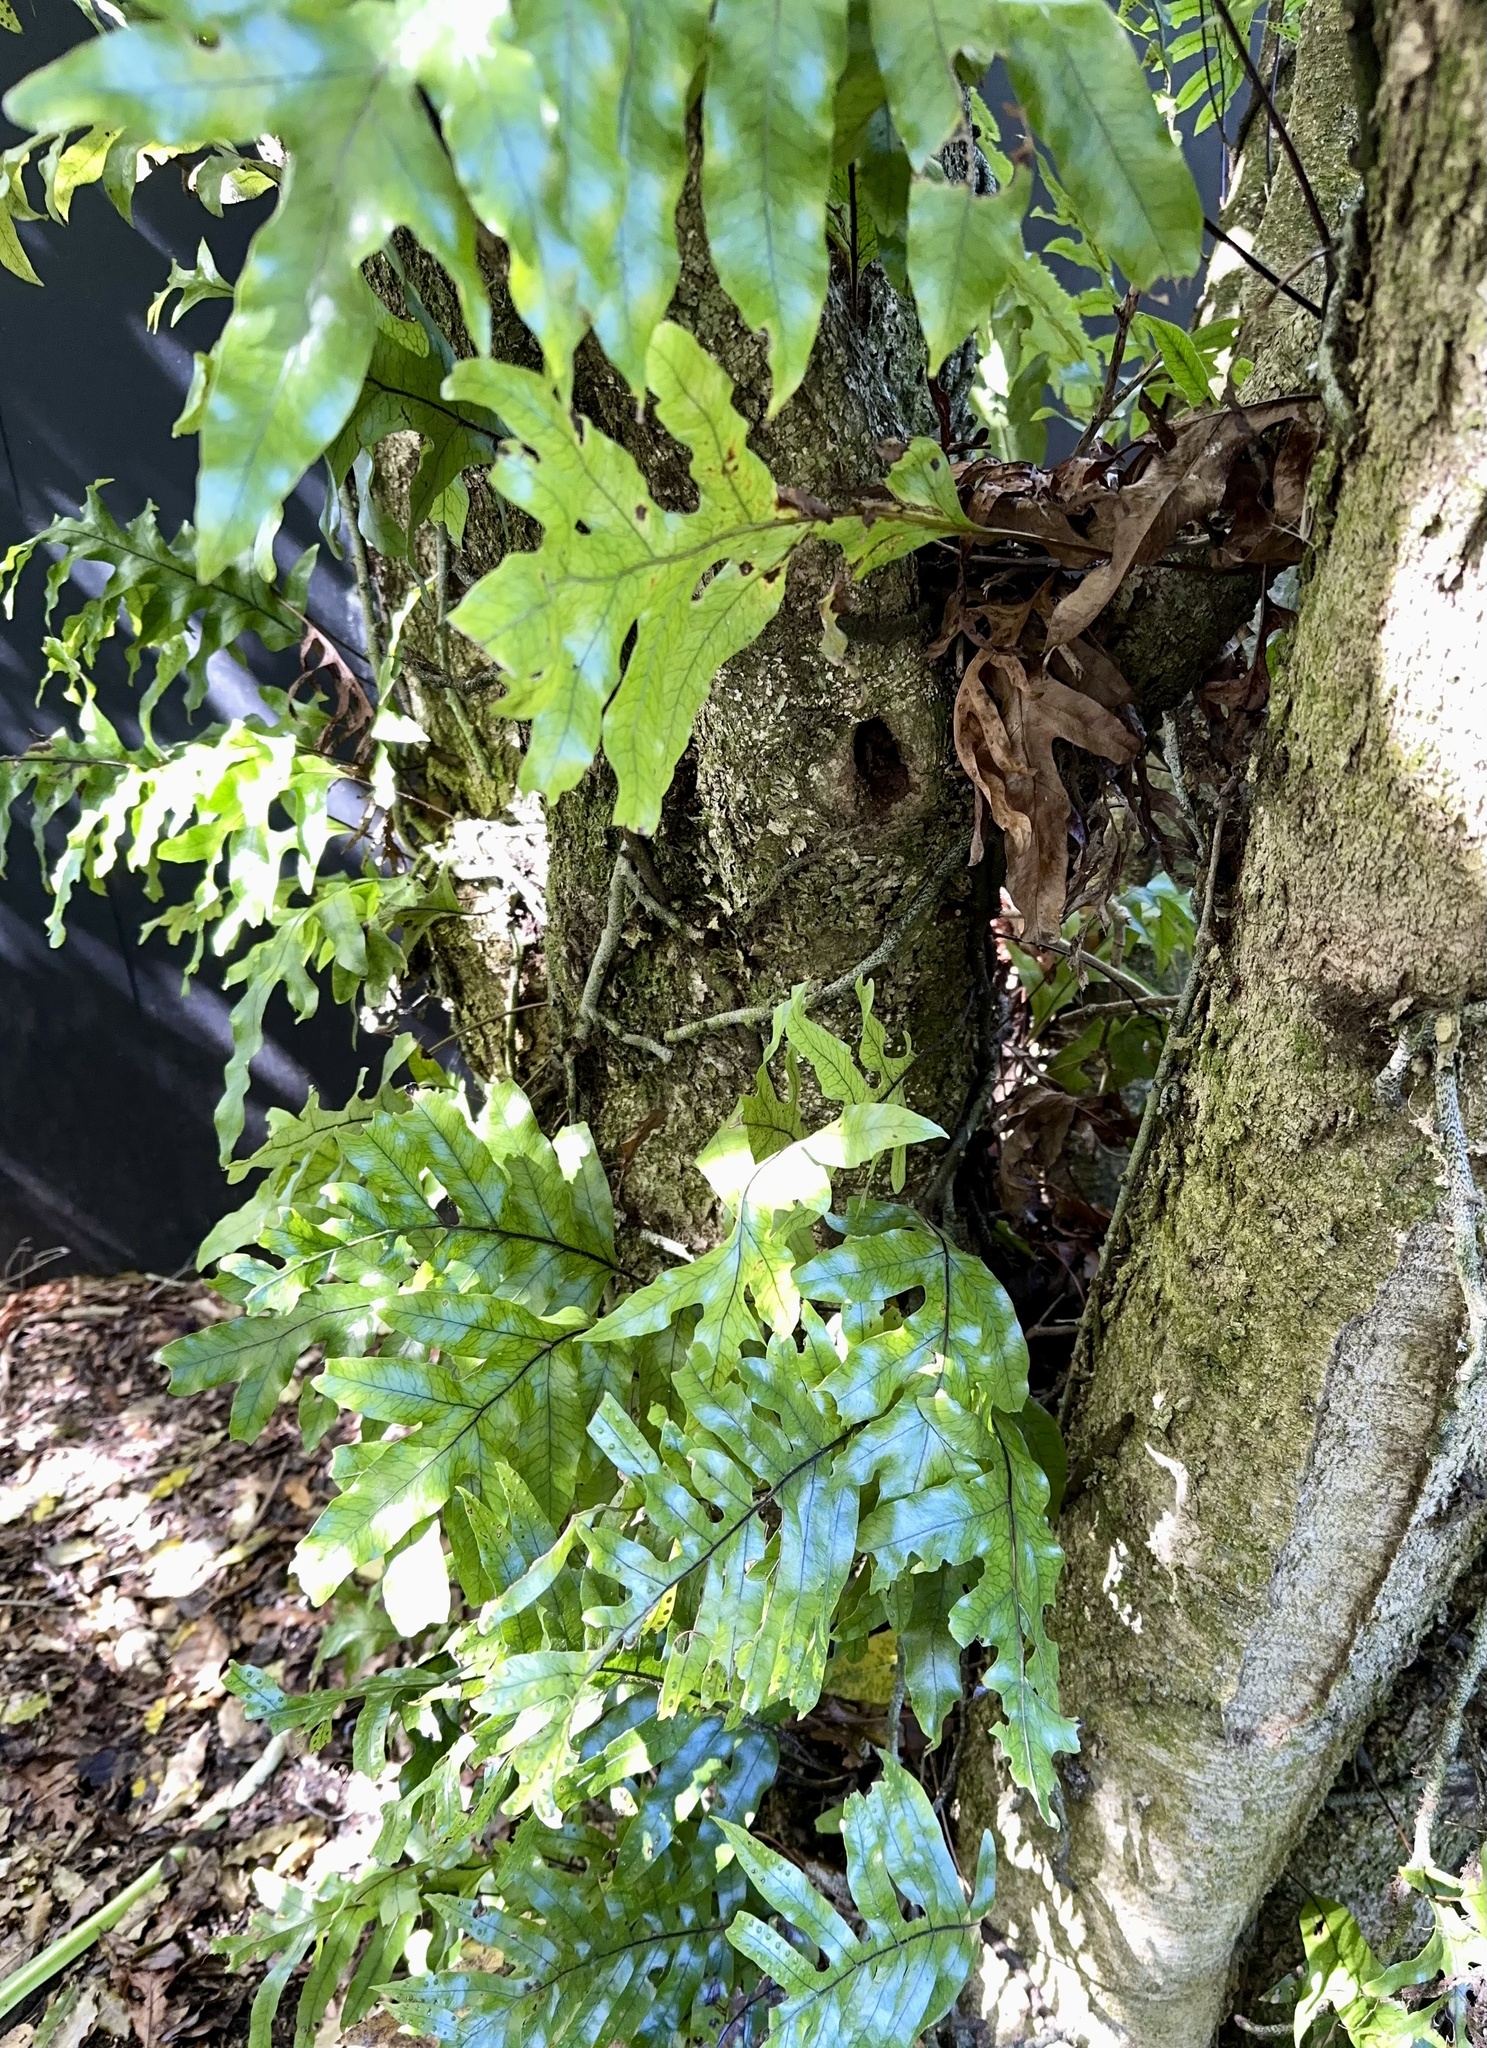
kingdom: Plantae
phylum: Tracheophyta
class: Polypodiopsida
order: Polypodiales
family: Polypodiaceae
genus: Lecanopteris
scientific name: Lecanopteris pustulata
